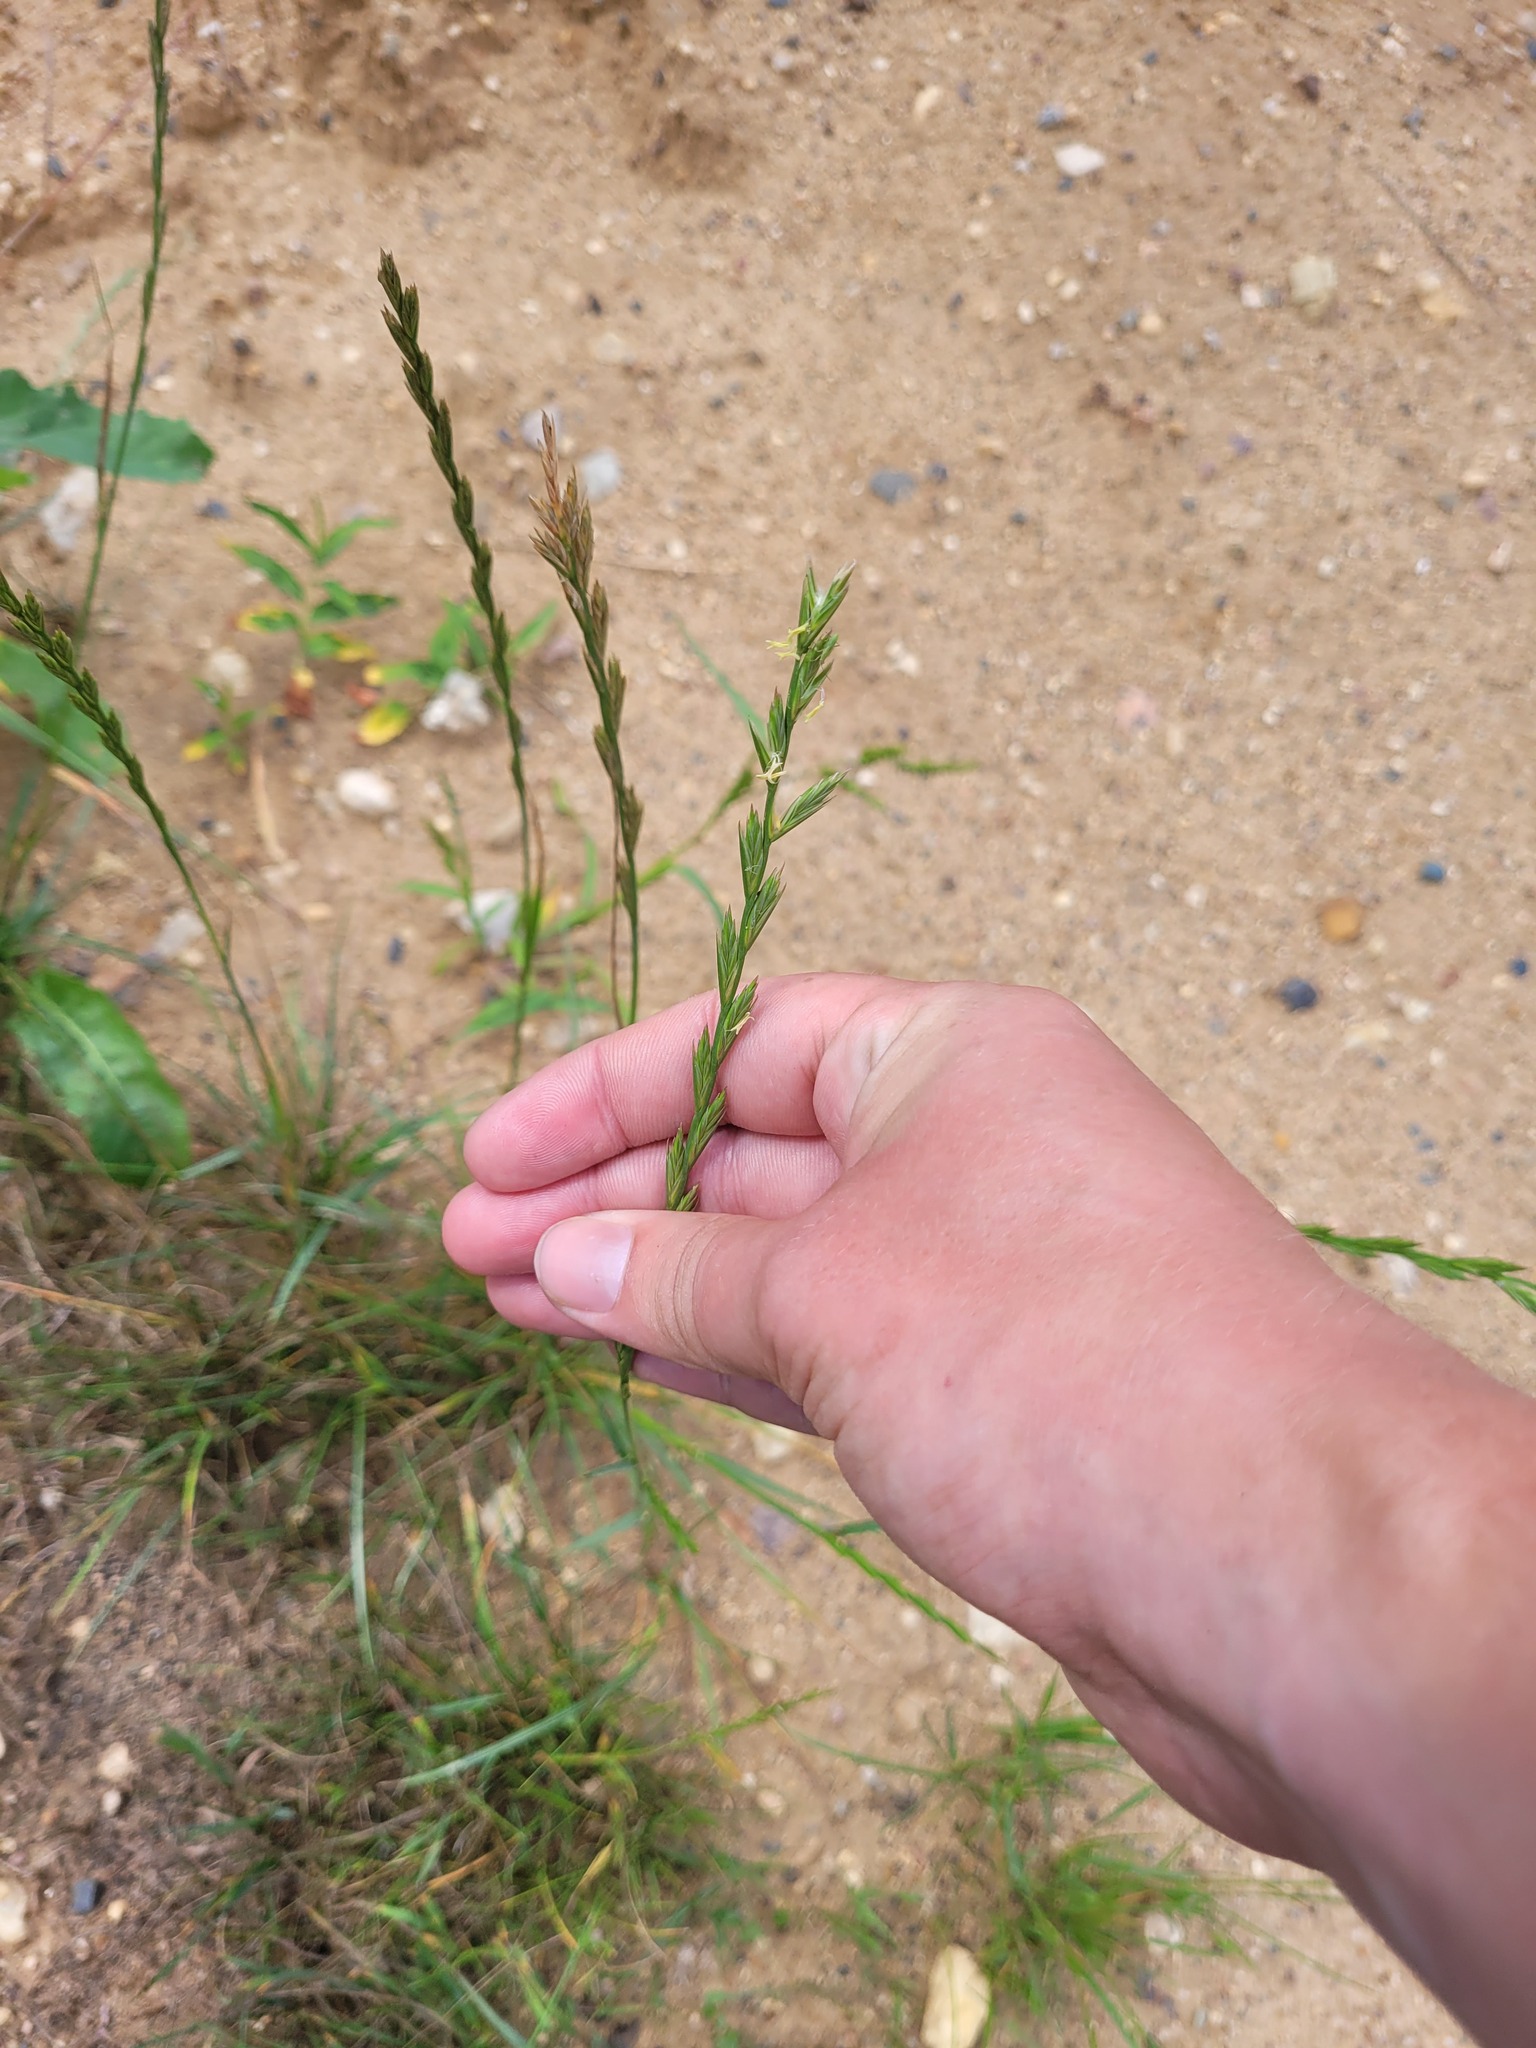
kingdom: Plantae
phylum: Tracheophyta
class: Liliopsida
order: Poales
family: Poaceae
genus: Lolium
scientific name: Lolium perenne
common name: Perennial ryegrass
